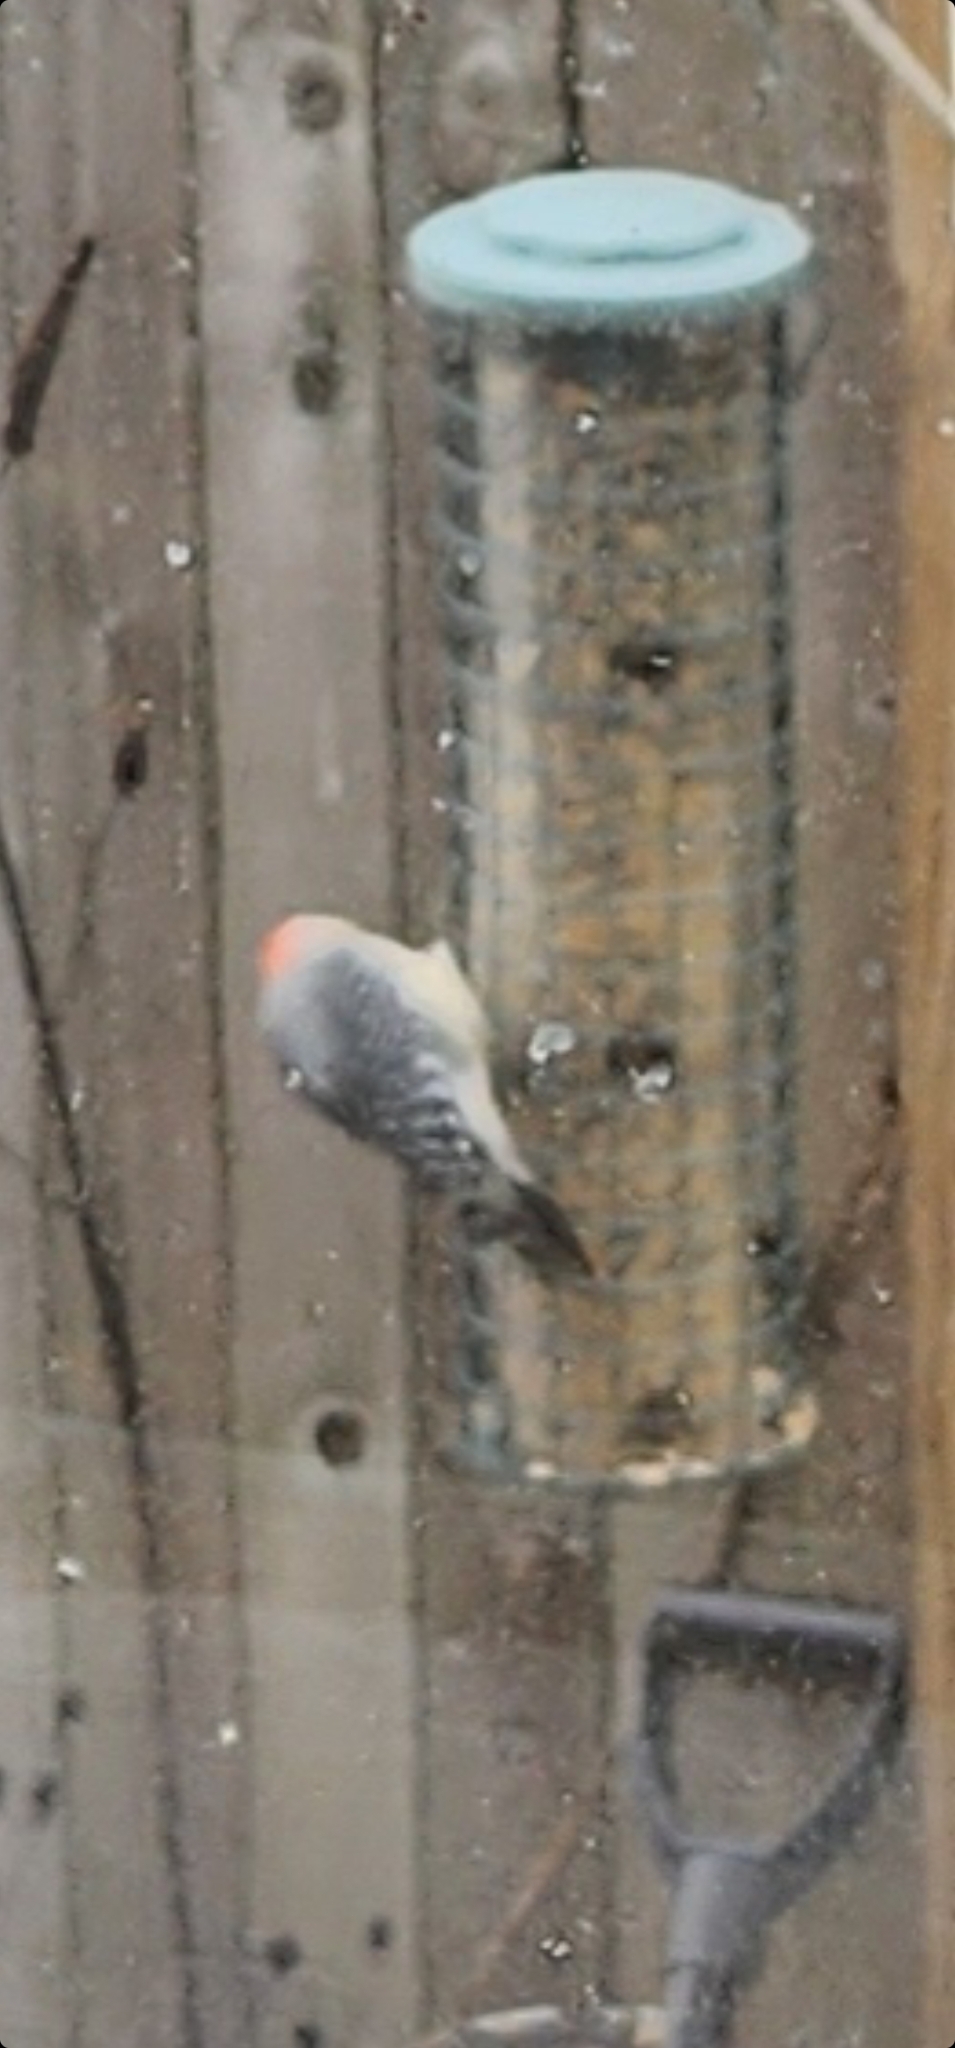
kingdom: Animalia
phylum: Chordata
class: Aves
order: Piciformes
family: Picidae
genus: Melanerpes
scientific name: Melanerpes carolinus
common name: Red-bellied woodpecker
